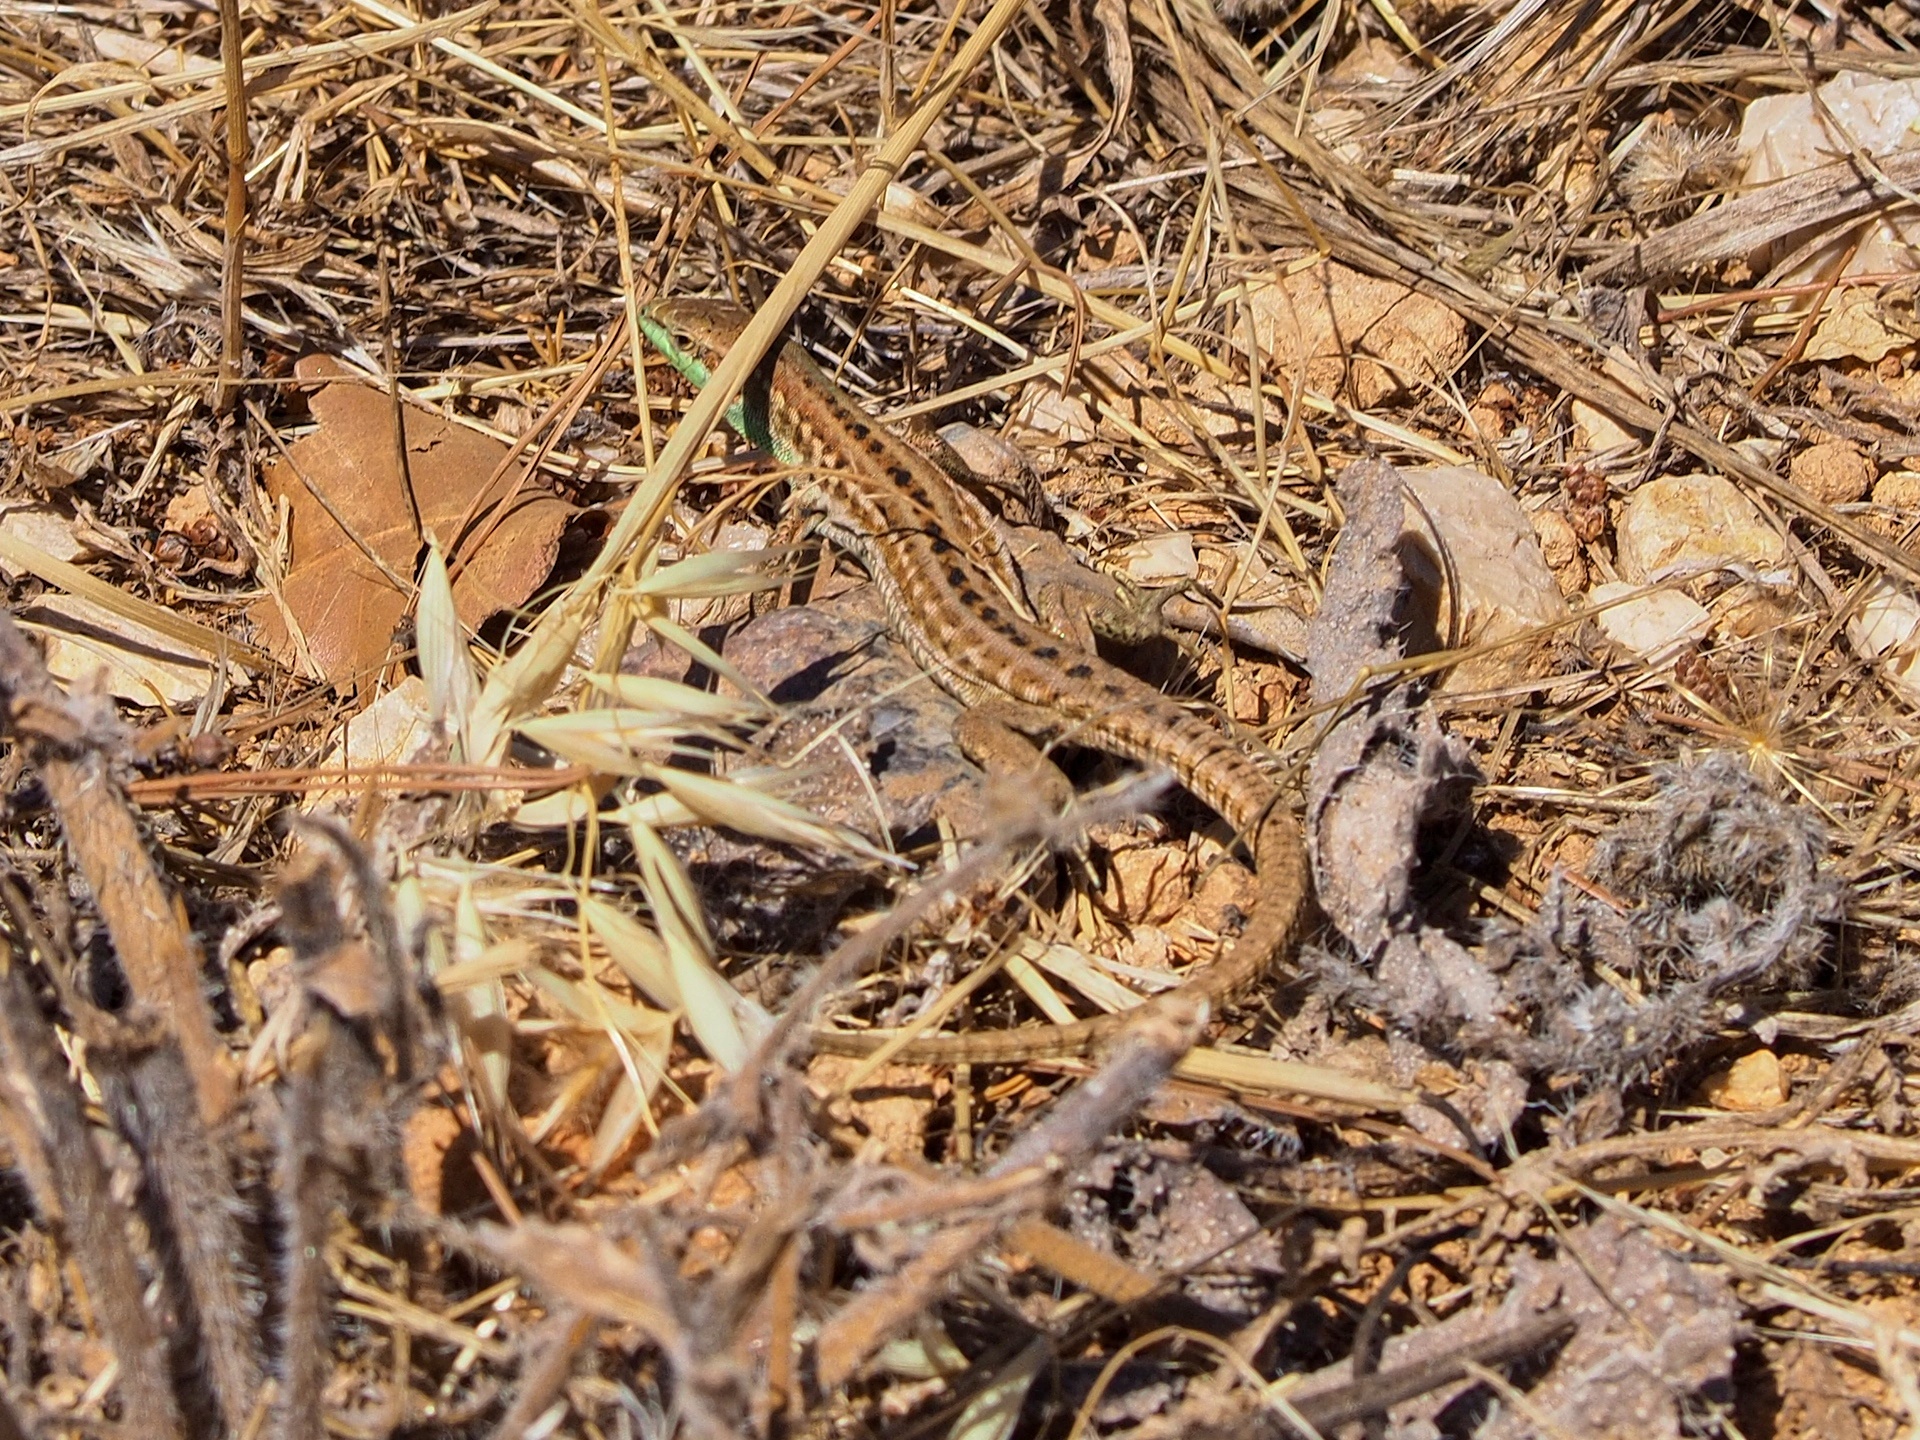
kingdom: Animalia
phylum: Chordata
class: Squamata
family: Lacertidae
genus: Podarcis
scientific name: Podarcis siculus
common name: Italian wall lizard
